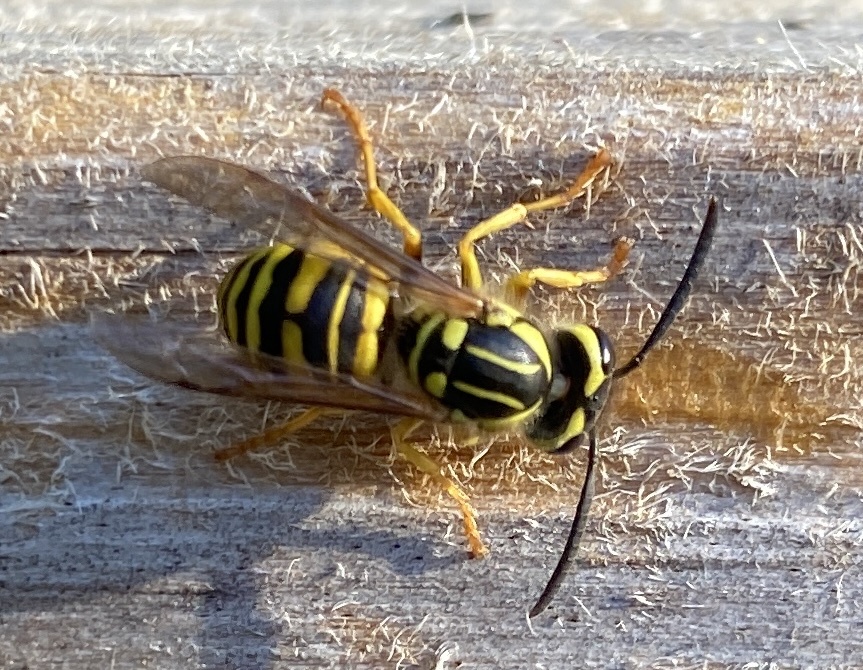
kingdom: Animalia
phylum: Arthropoda
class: Insecta
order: Hymenoptera
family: Vespidae
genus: Vespula
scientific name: Vespula squamosa
